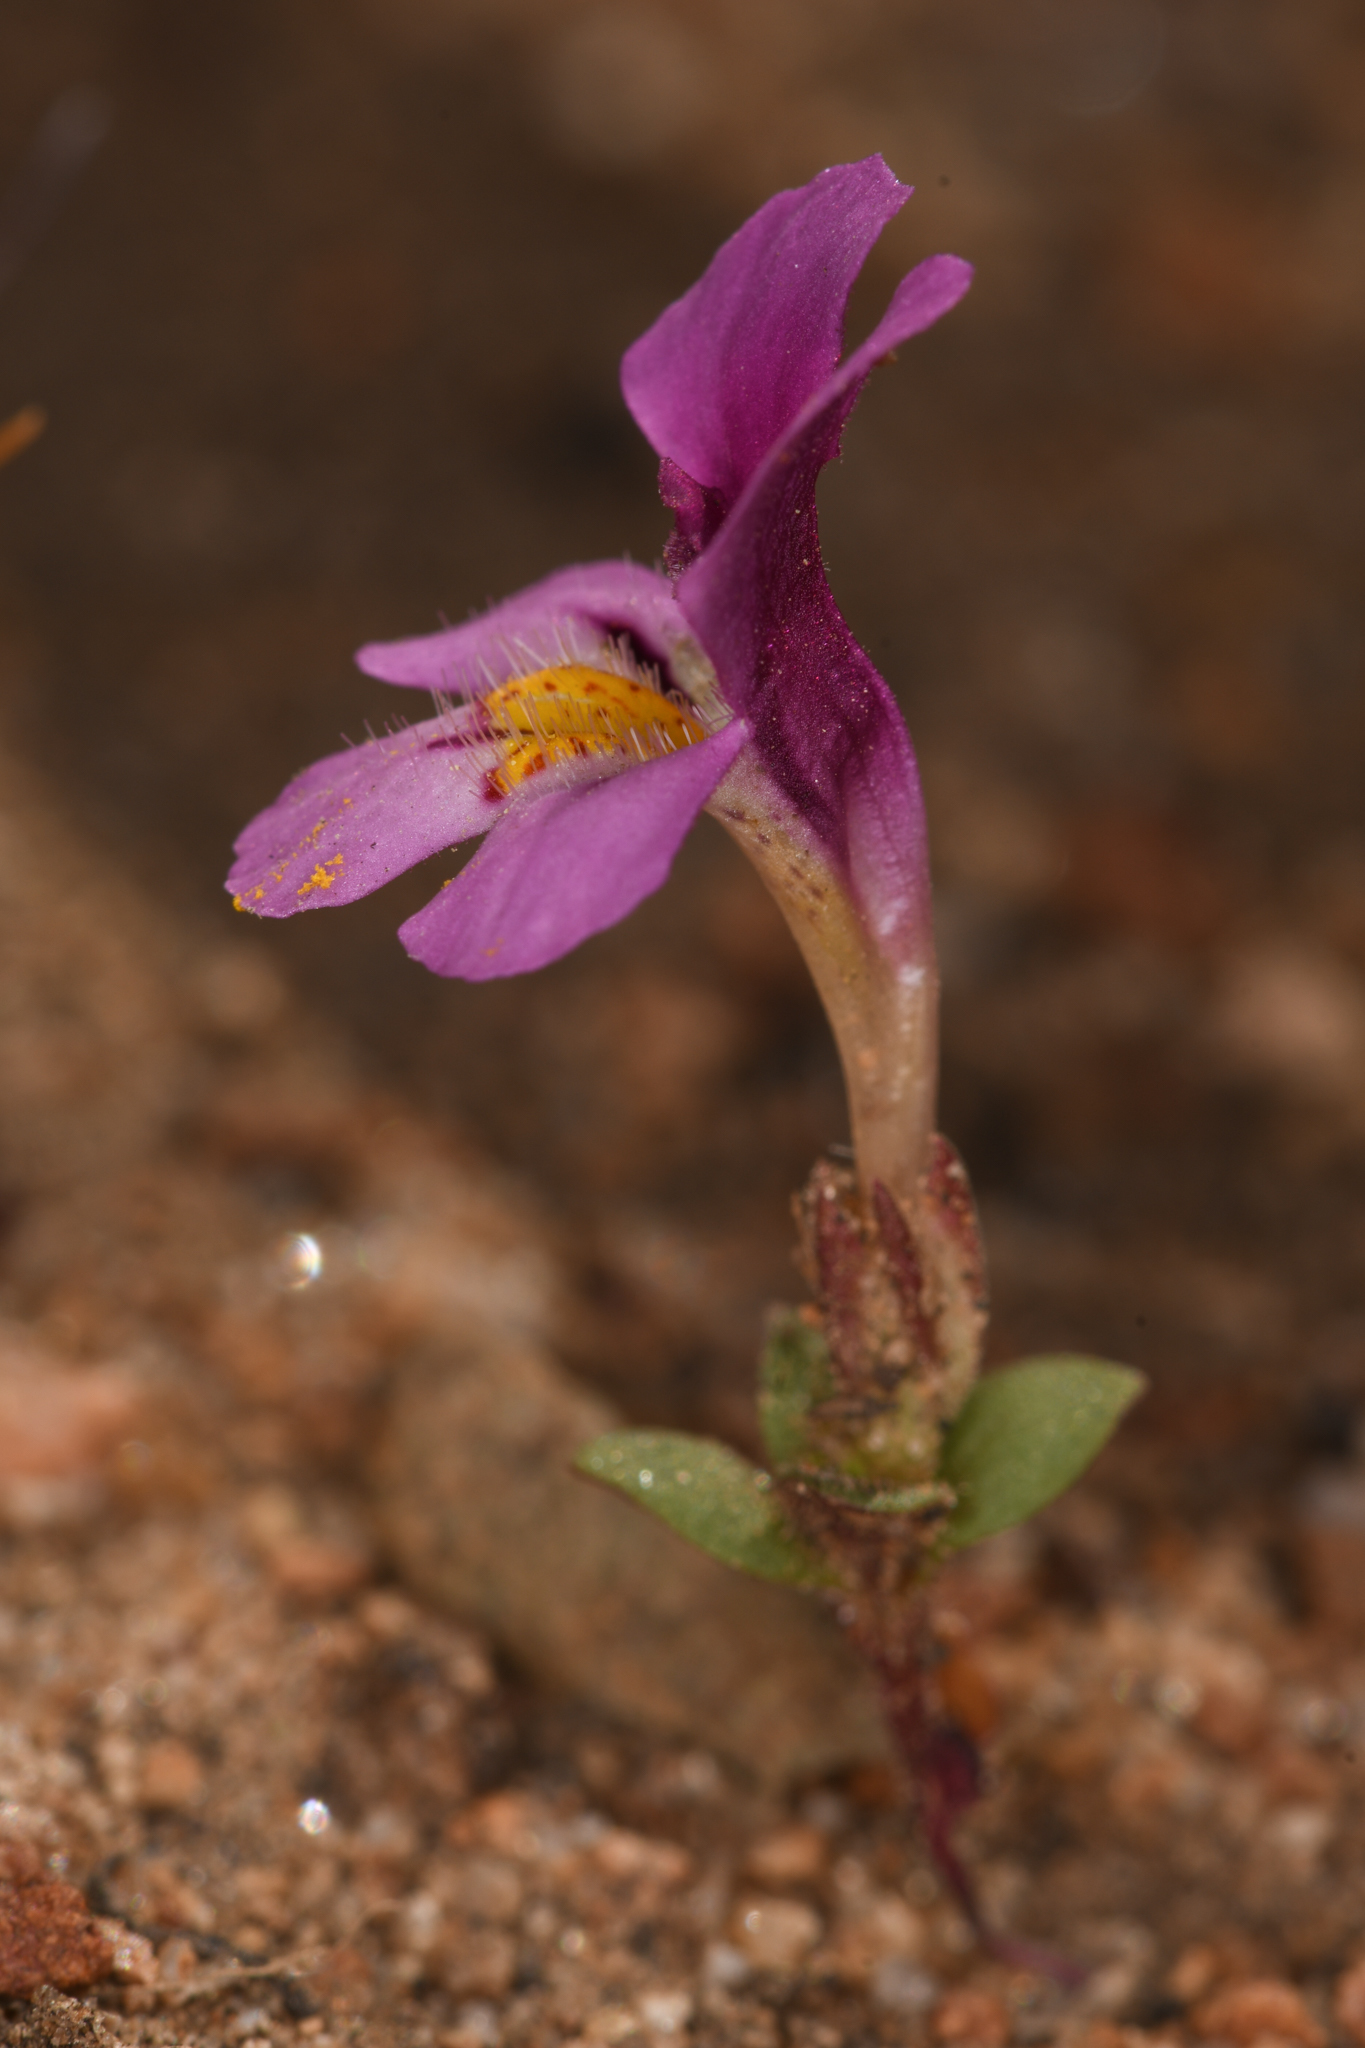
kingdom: Plantae
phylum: Tracheophyta
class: Magnoliopsida
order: Lamiales
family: Phrymaceae
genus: Diplacus
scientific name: Diplacus ovatus
